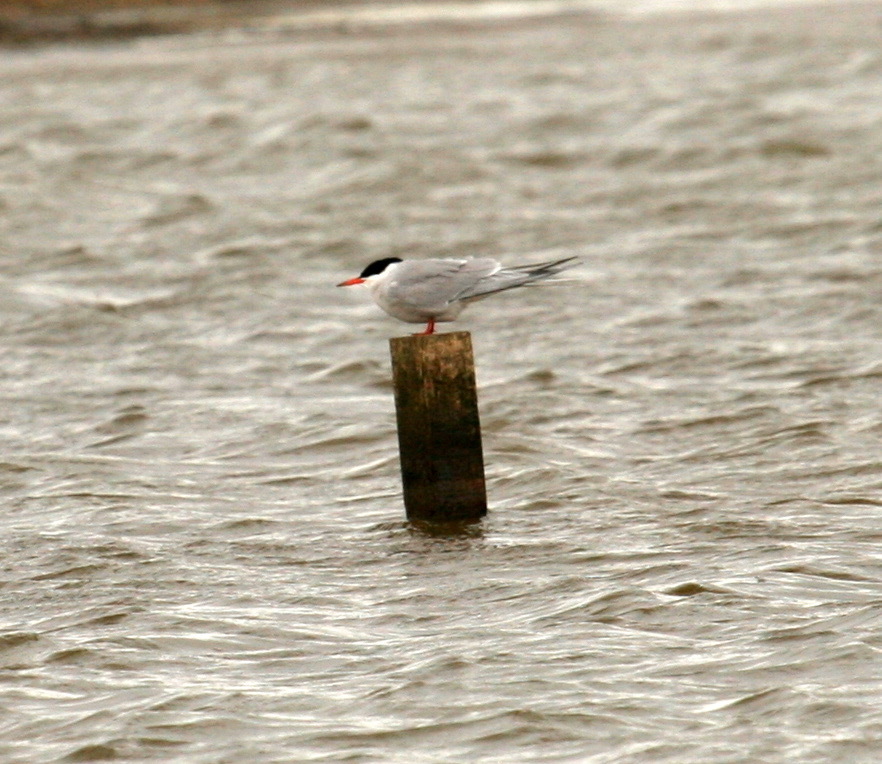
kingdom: Animalia
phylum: Chordata
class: Aves
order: Charadriiformes
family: Laridae
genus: Sterna
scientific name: Sterna hirundo
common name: Common tern
